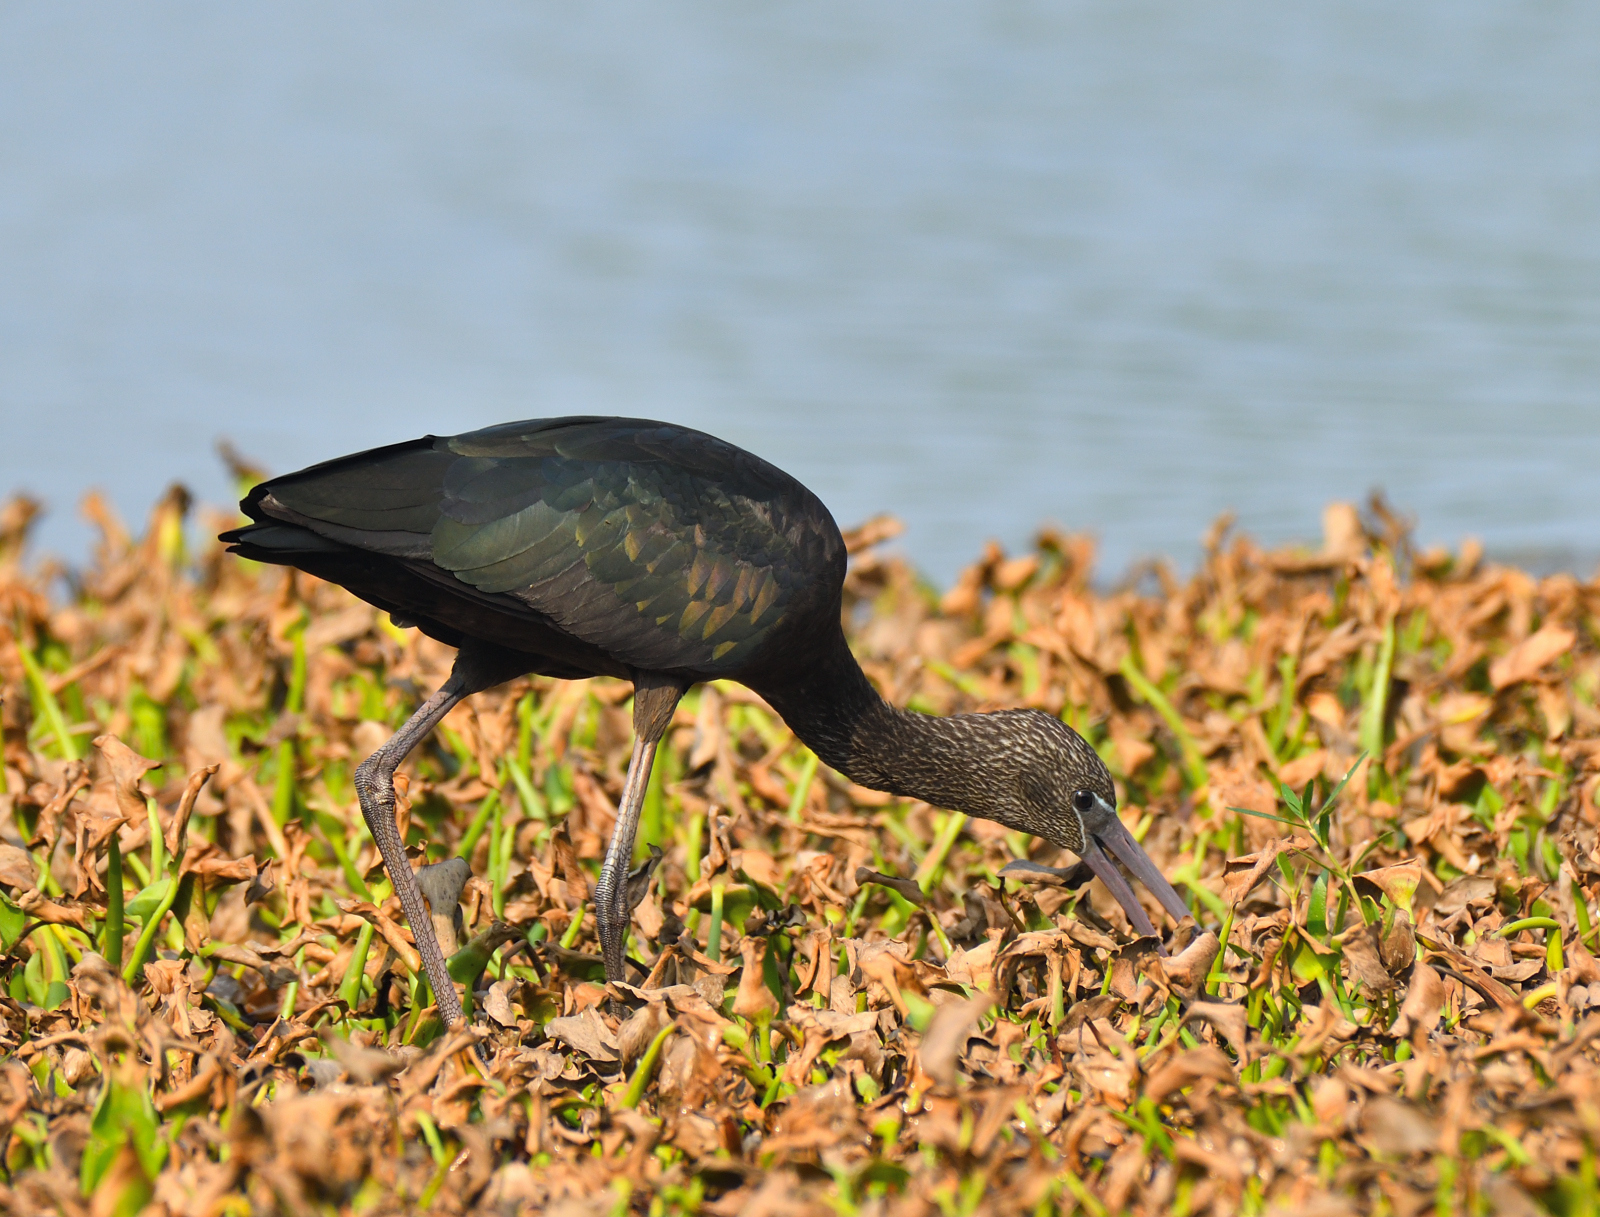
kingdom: Animalia
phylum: Chordata
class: Aves
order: Pelecaniformes
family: Threskiornithidae
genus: Plegadis
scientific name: Plegadis falcinellus
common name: Glossy ibis
